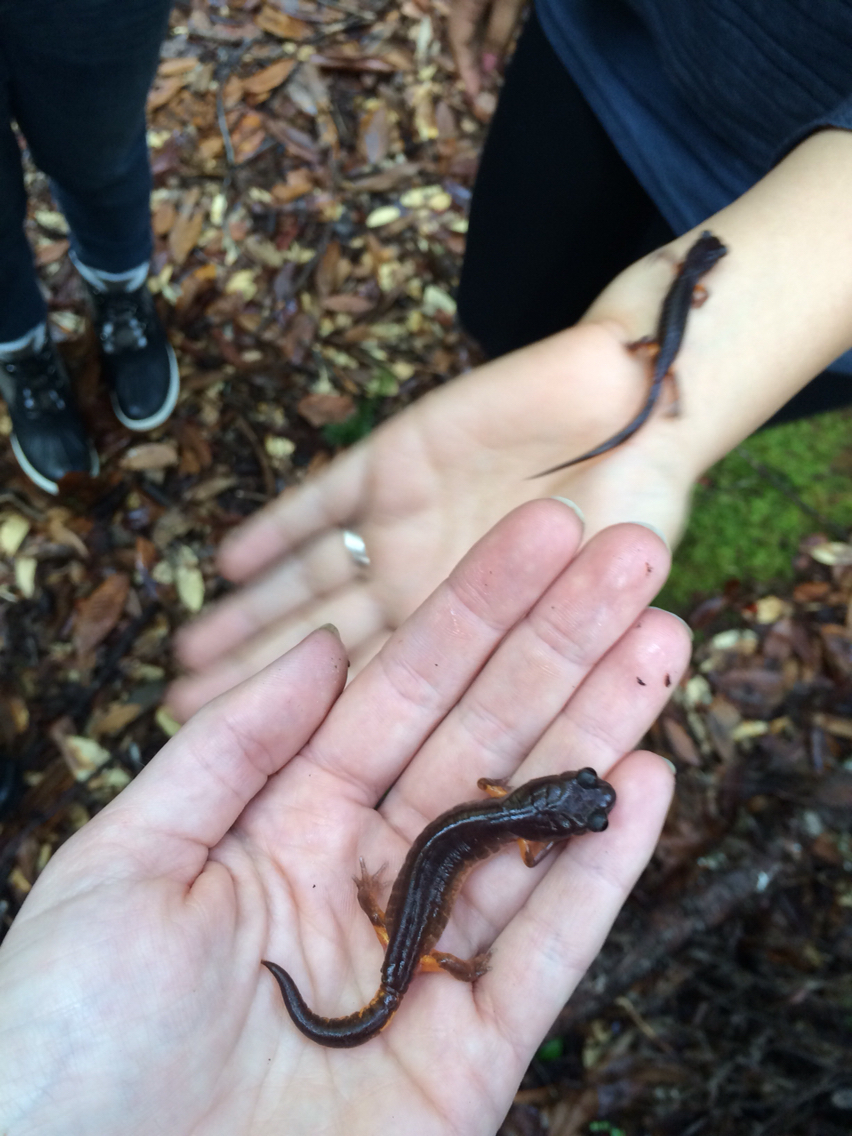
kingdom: Animalia
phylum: Chordata
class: Amphibia
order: Caudata
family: Plethodontidae
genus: Ensatina
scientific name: Ensatina eschscholtzii
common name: Ensatina
